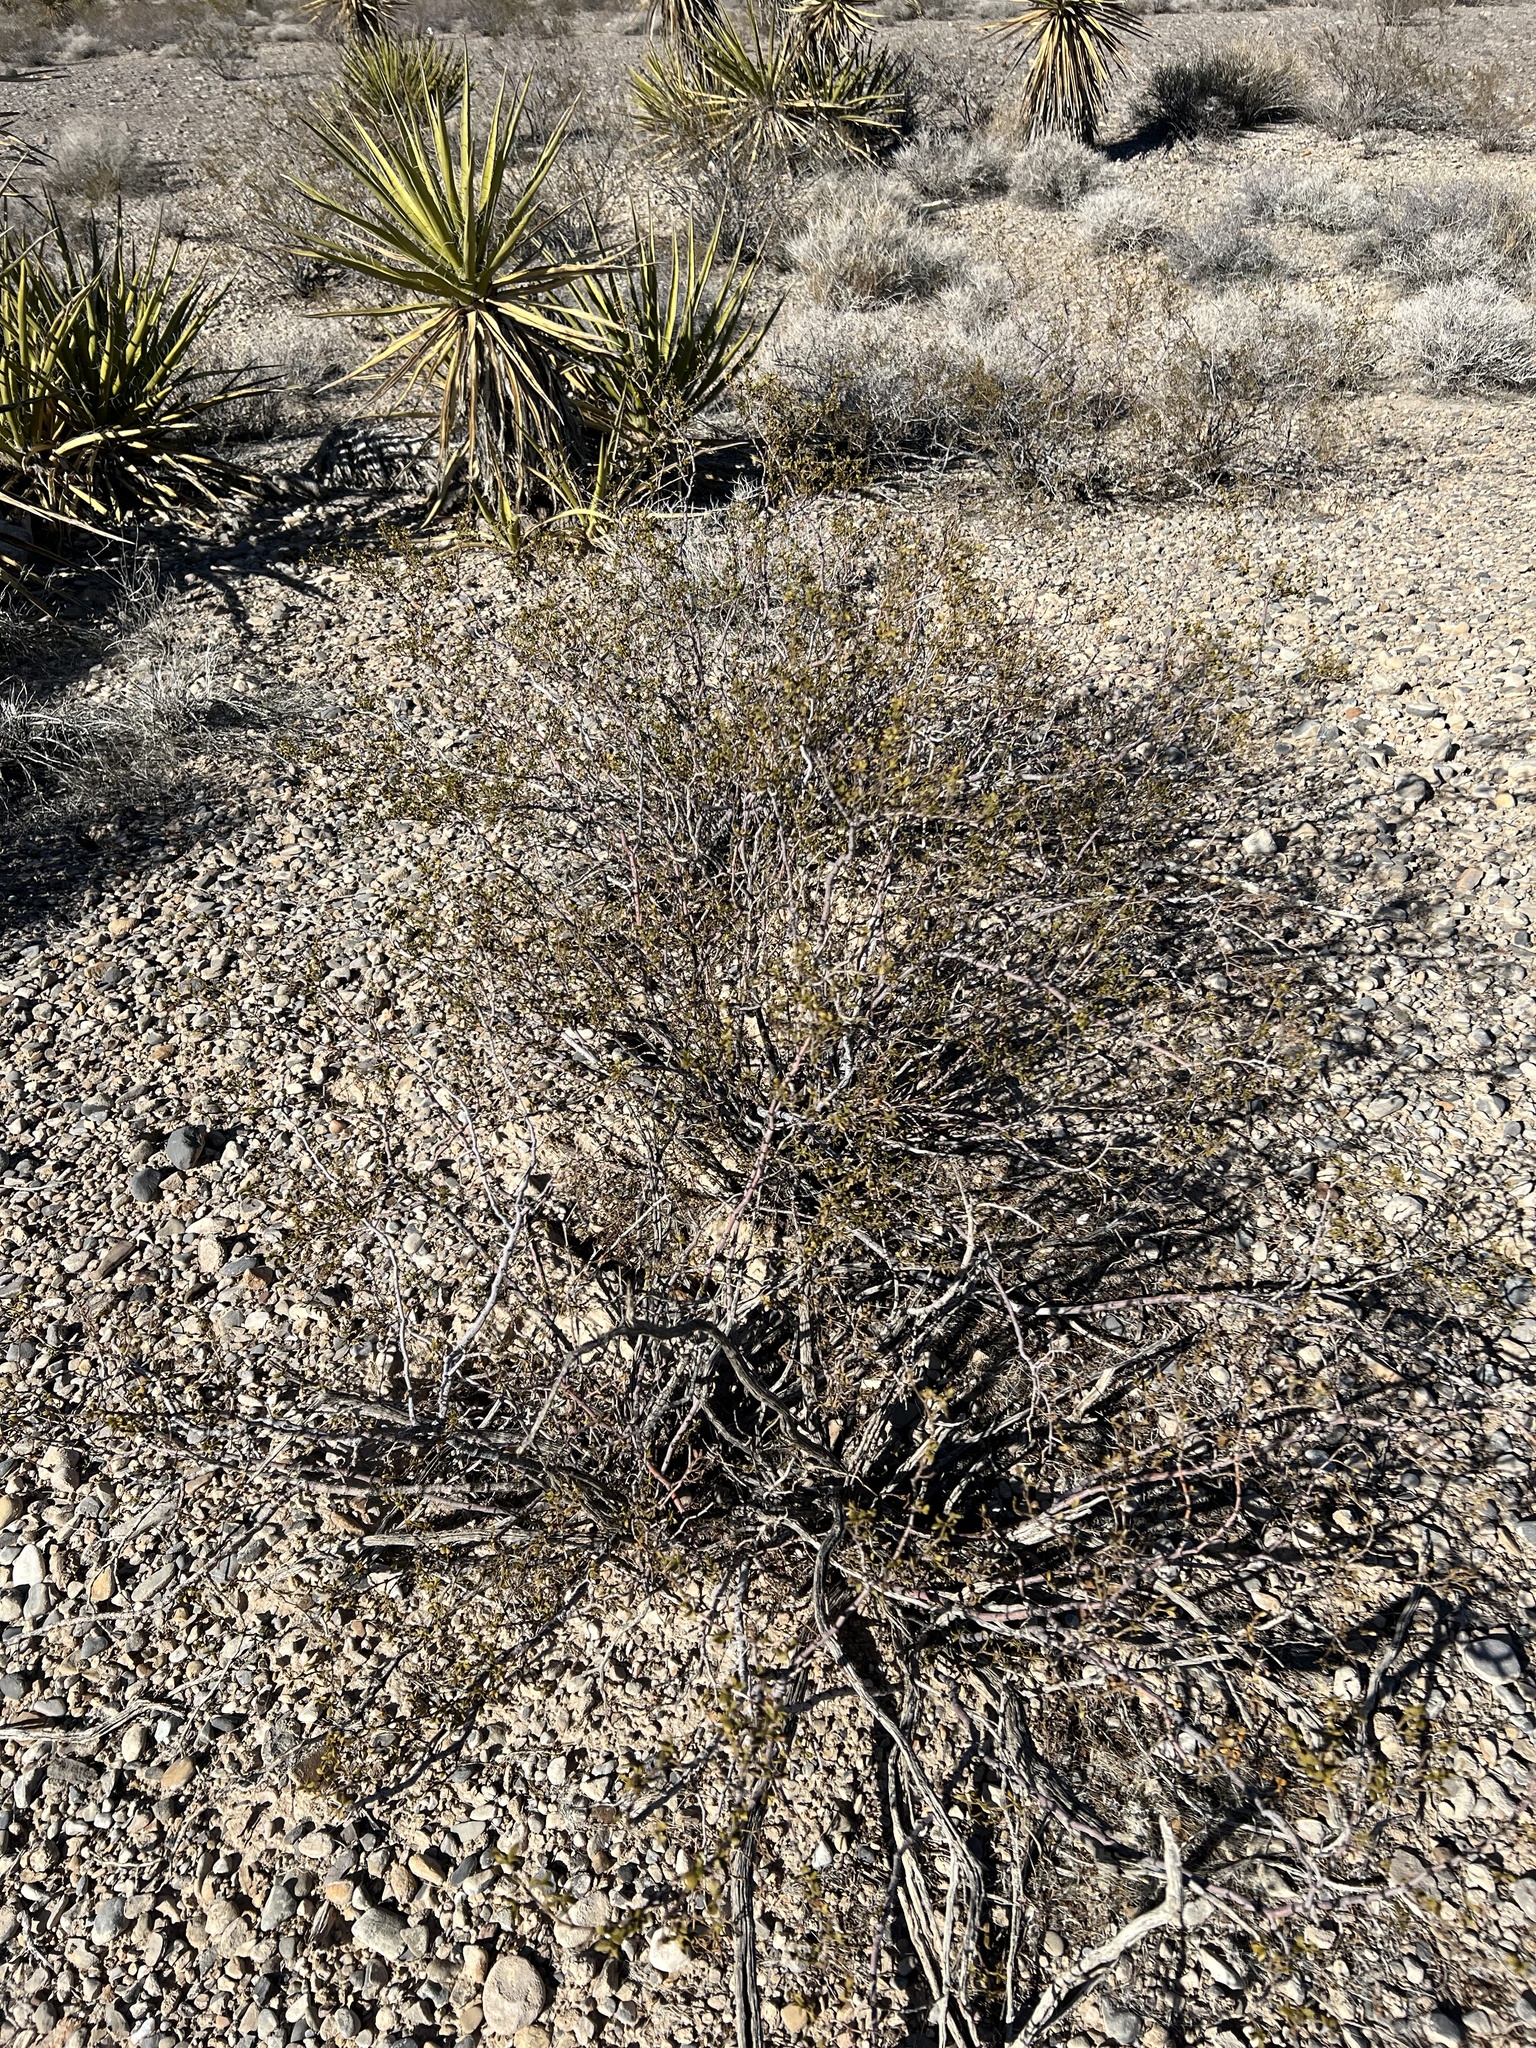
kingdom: Plantae
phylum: Tracheophyta
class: Magnoliopsida
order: Zygophyllales
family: Zygophyllaceae
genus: Larrea
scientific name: Larrea tridentata
